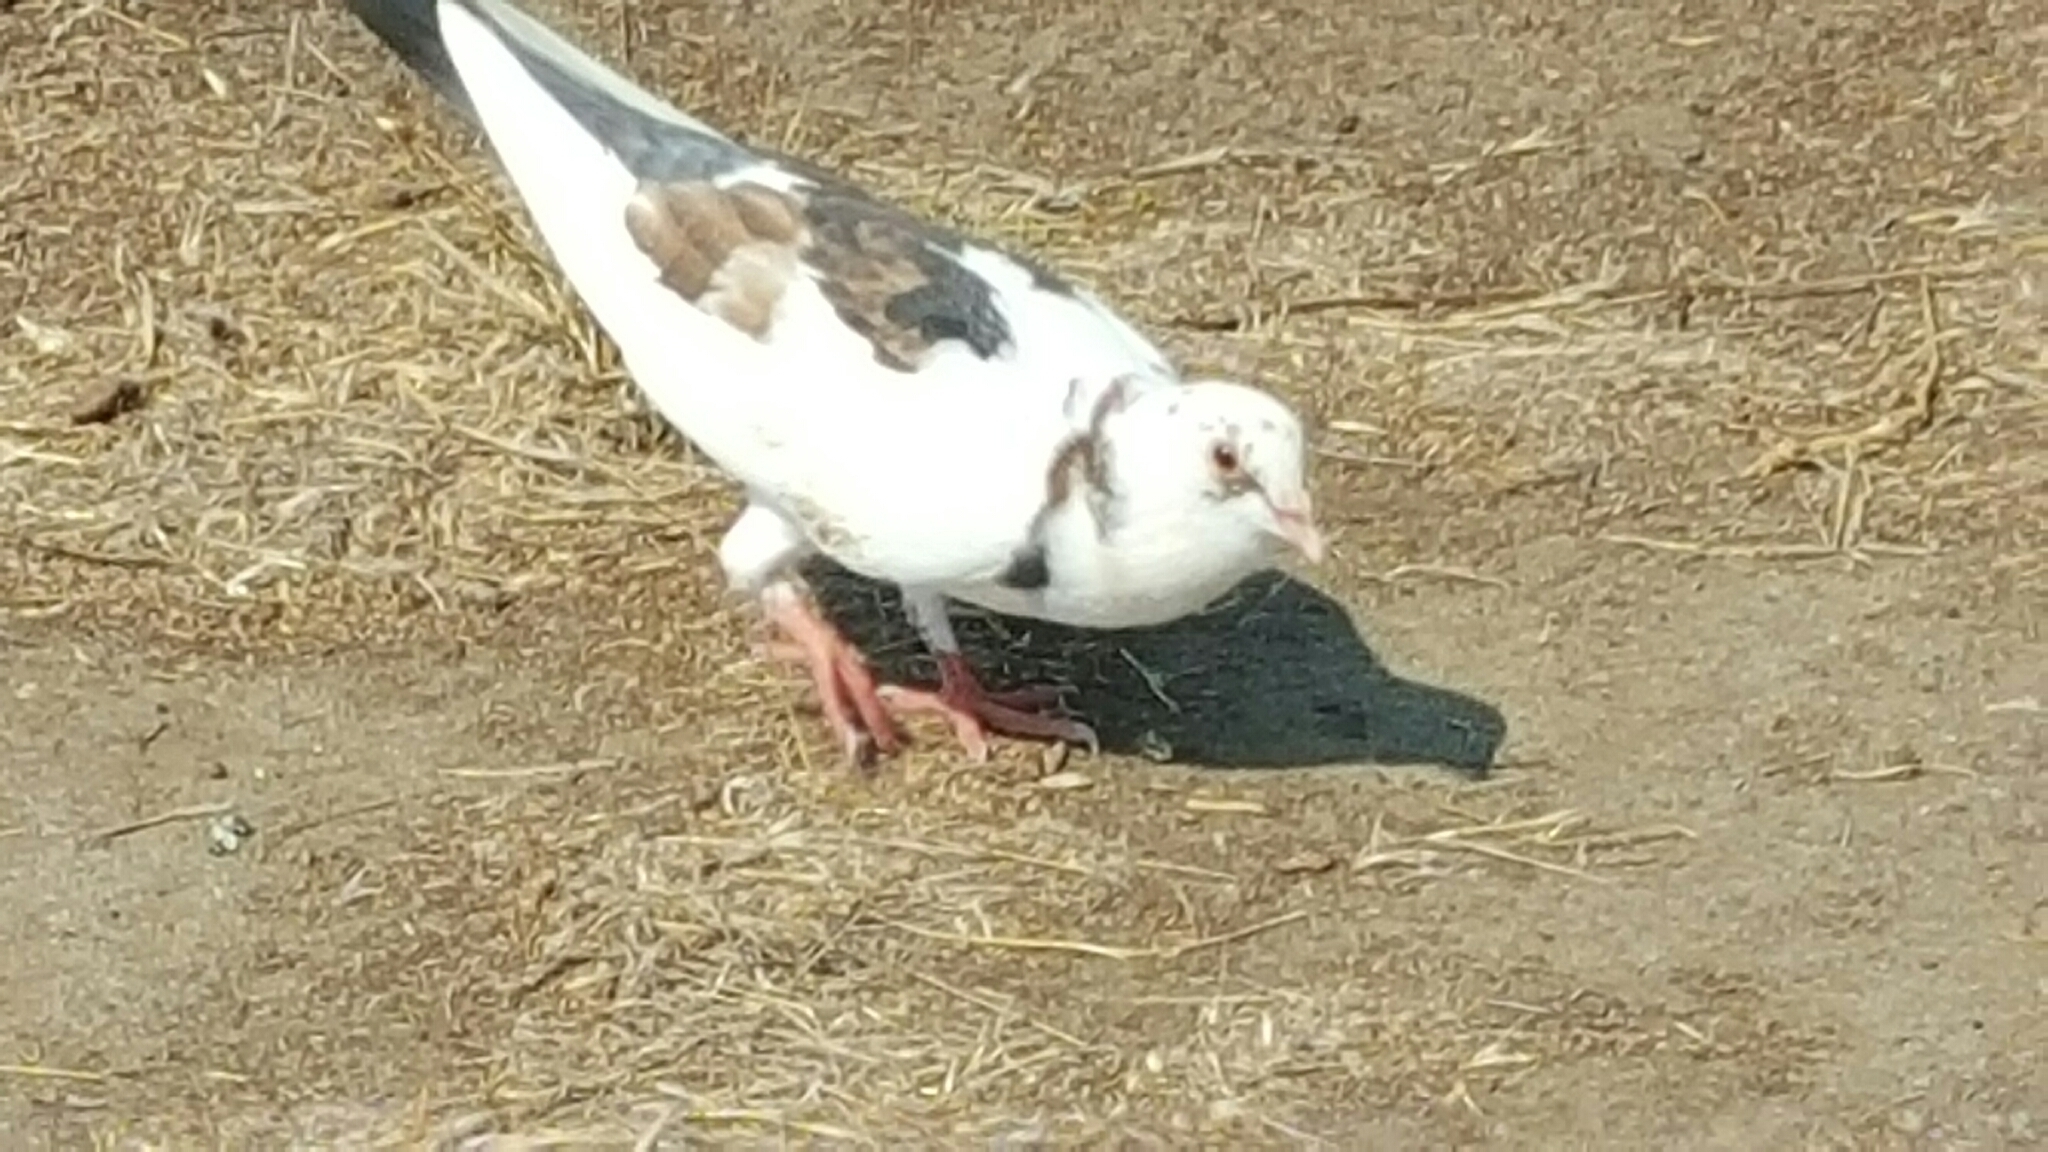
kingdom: Animalia
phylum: Chordata
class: Aves
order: Columbiformes
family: Columbidae
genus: Columba
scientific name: Columba livia
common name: Rock pigeon
